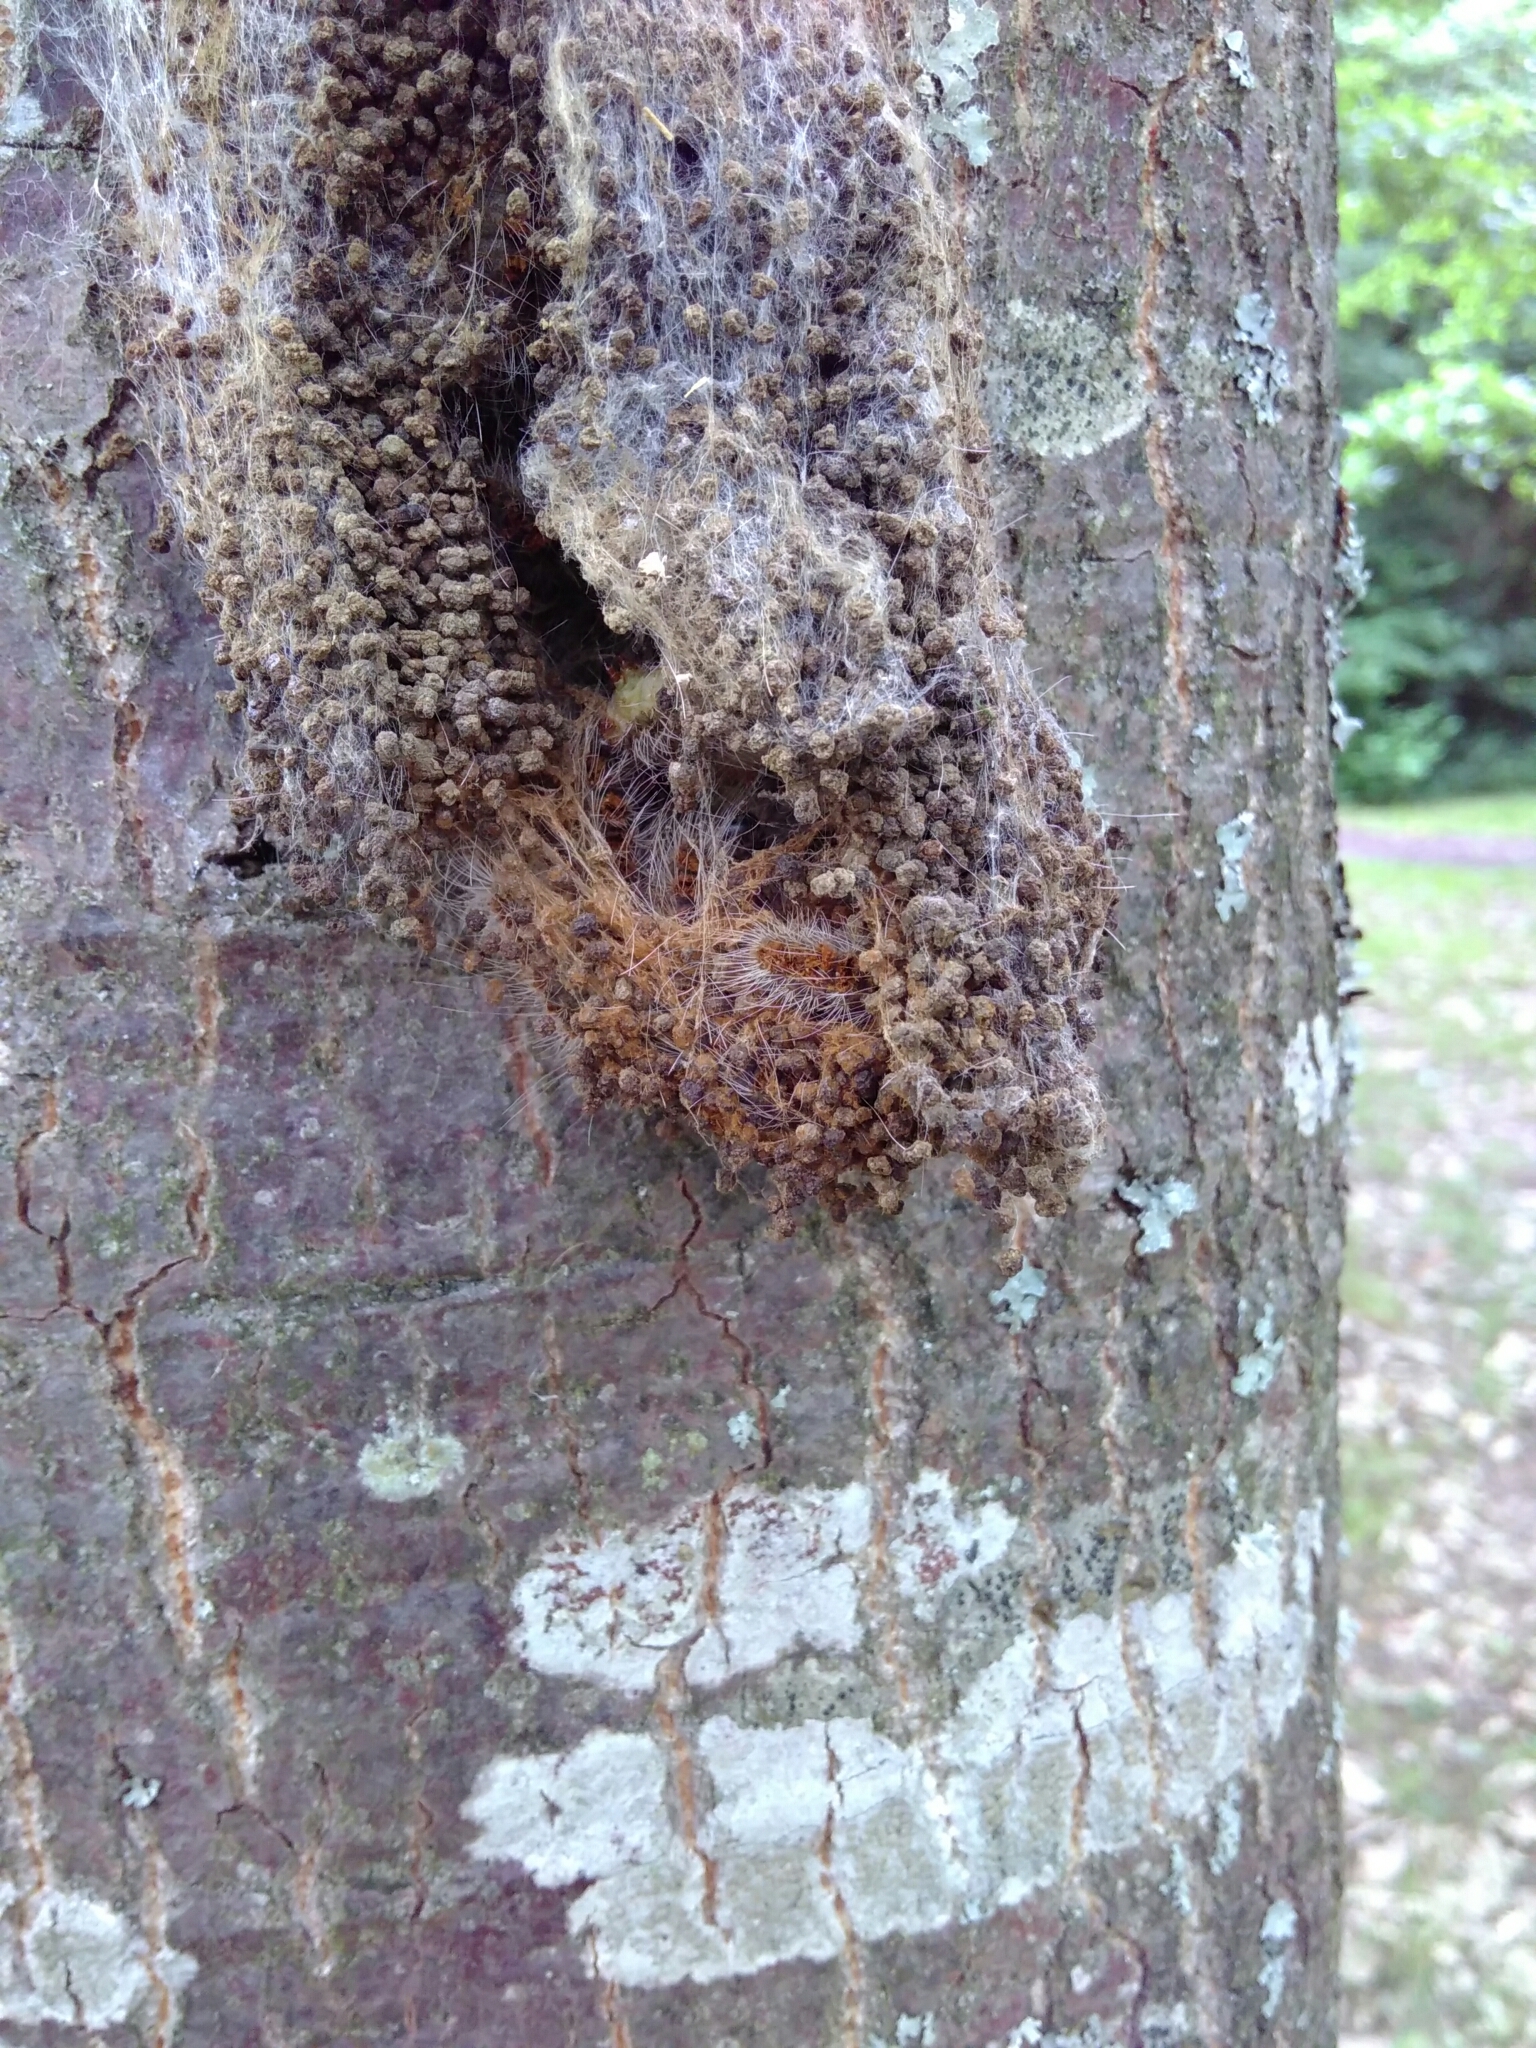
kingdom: Animalia
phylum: Arthropoda
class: Insecta
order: Lepidoptera
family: Notodontidae
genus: Thaumetopoea
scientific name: Thaumetopoea processionea
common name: Oak processionea
